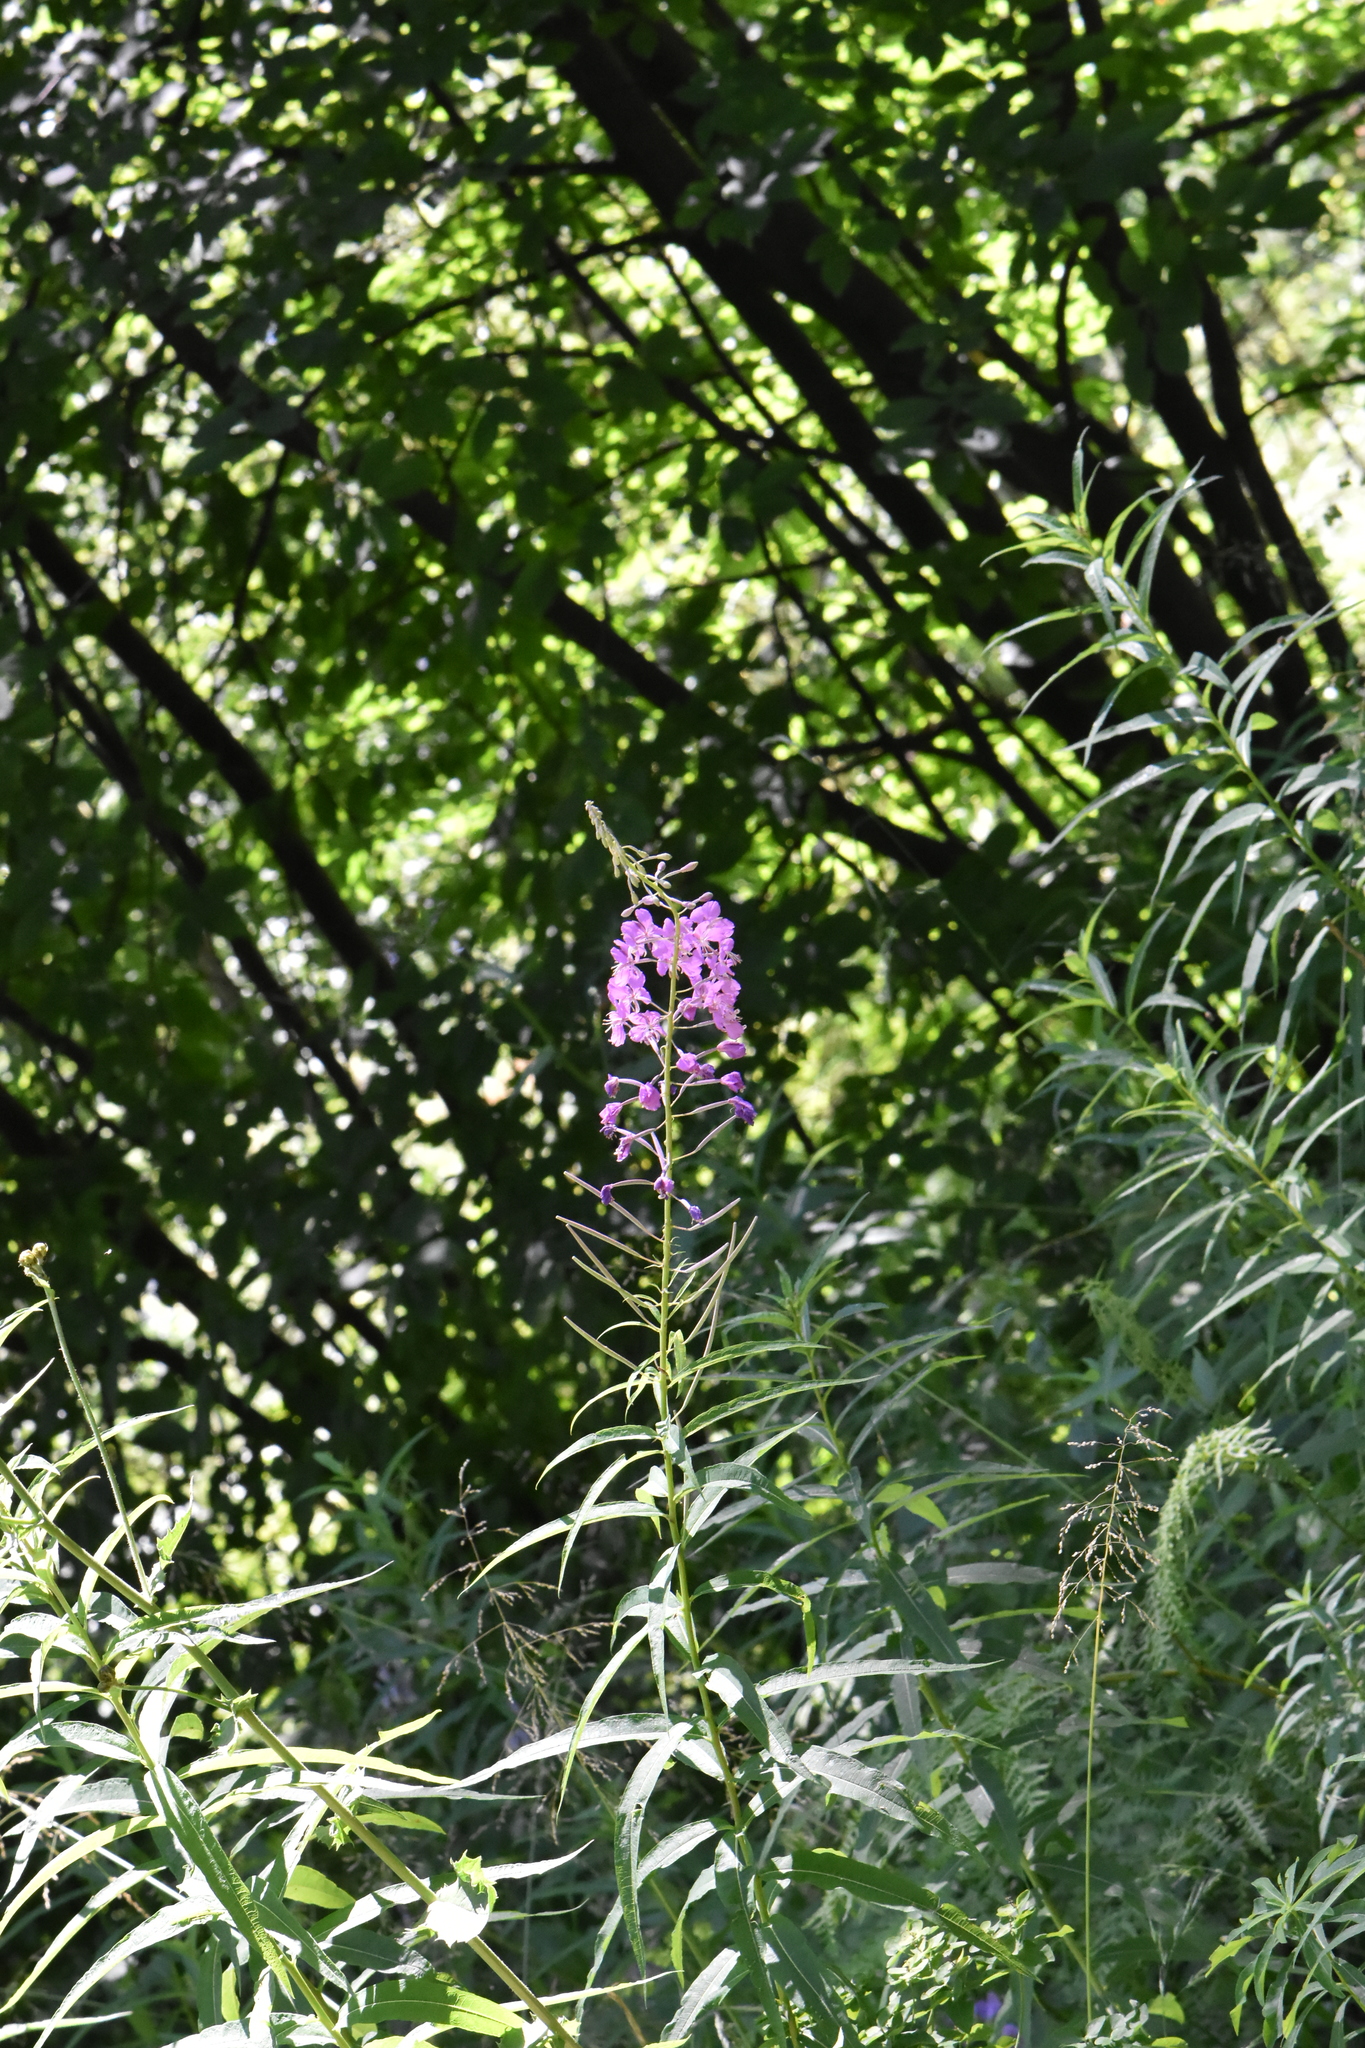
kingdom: Plantae
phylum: Tracheophyta
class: Magnoliopsida
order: Myrtales
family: Onagraceae
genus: Chamaenerion
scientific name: Chamaenerion angustifolium
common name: Fireweed
